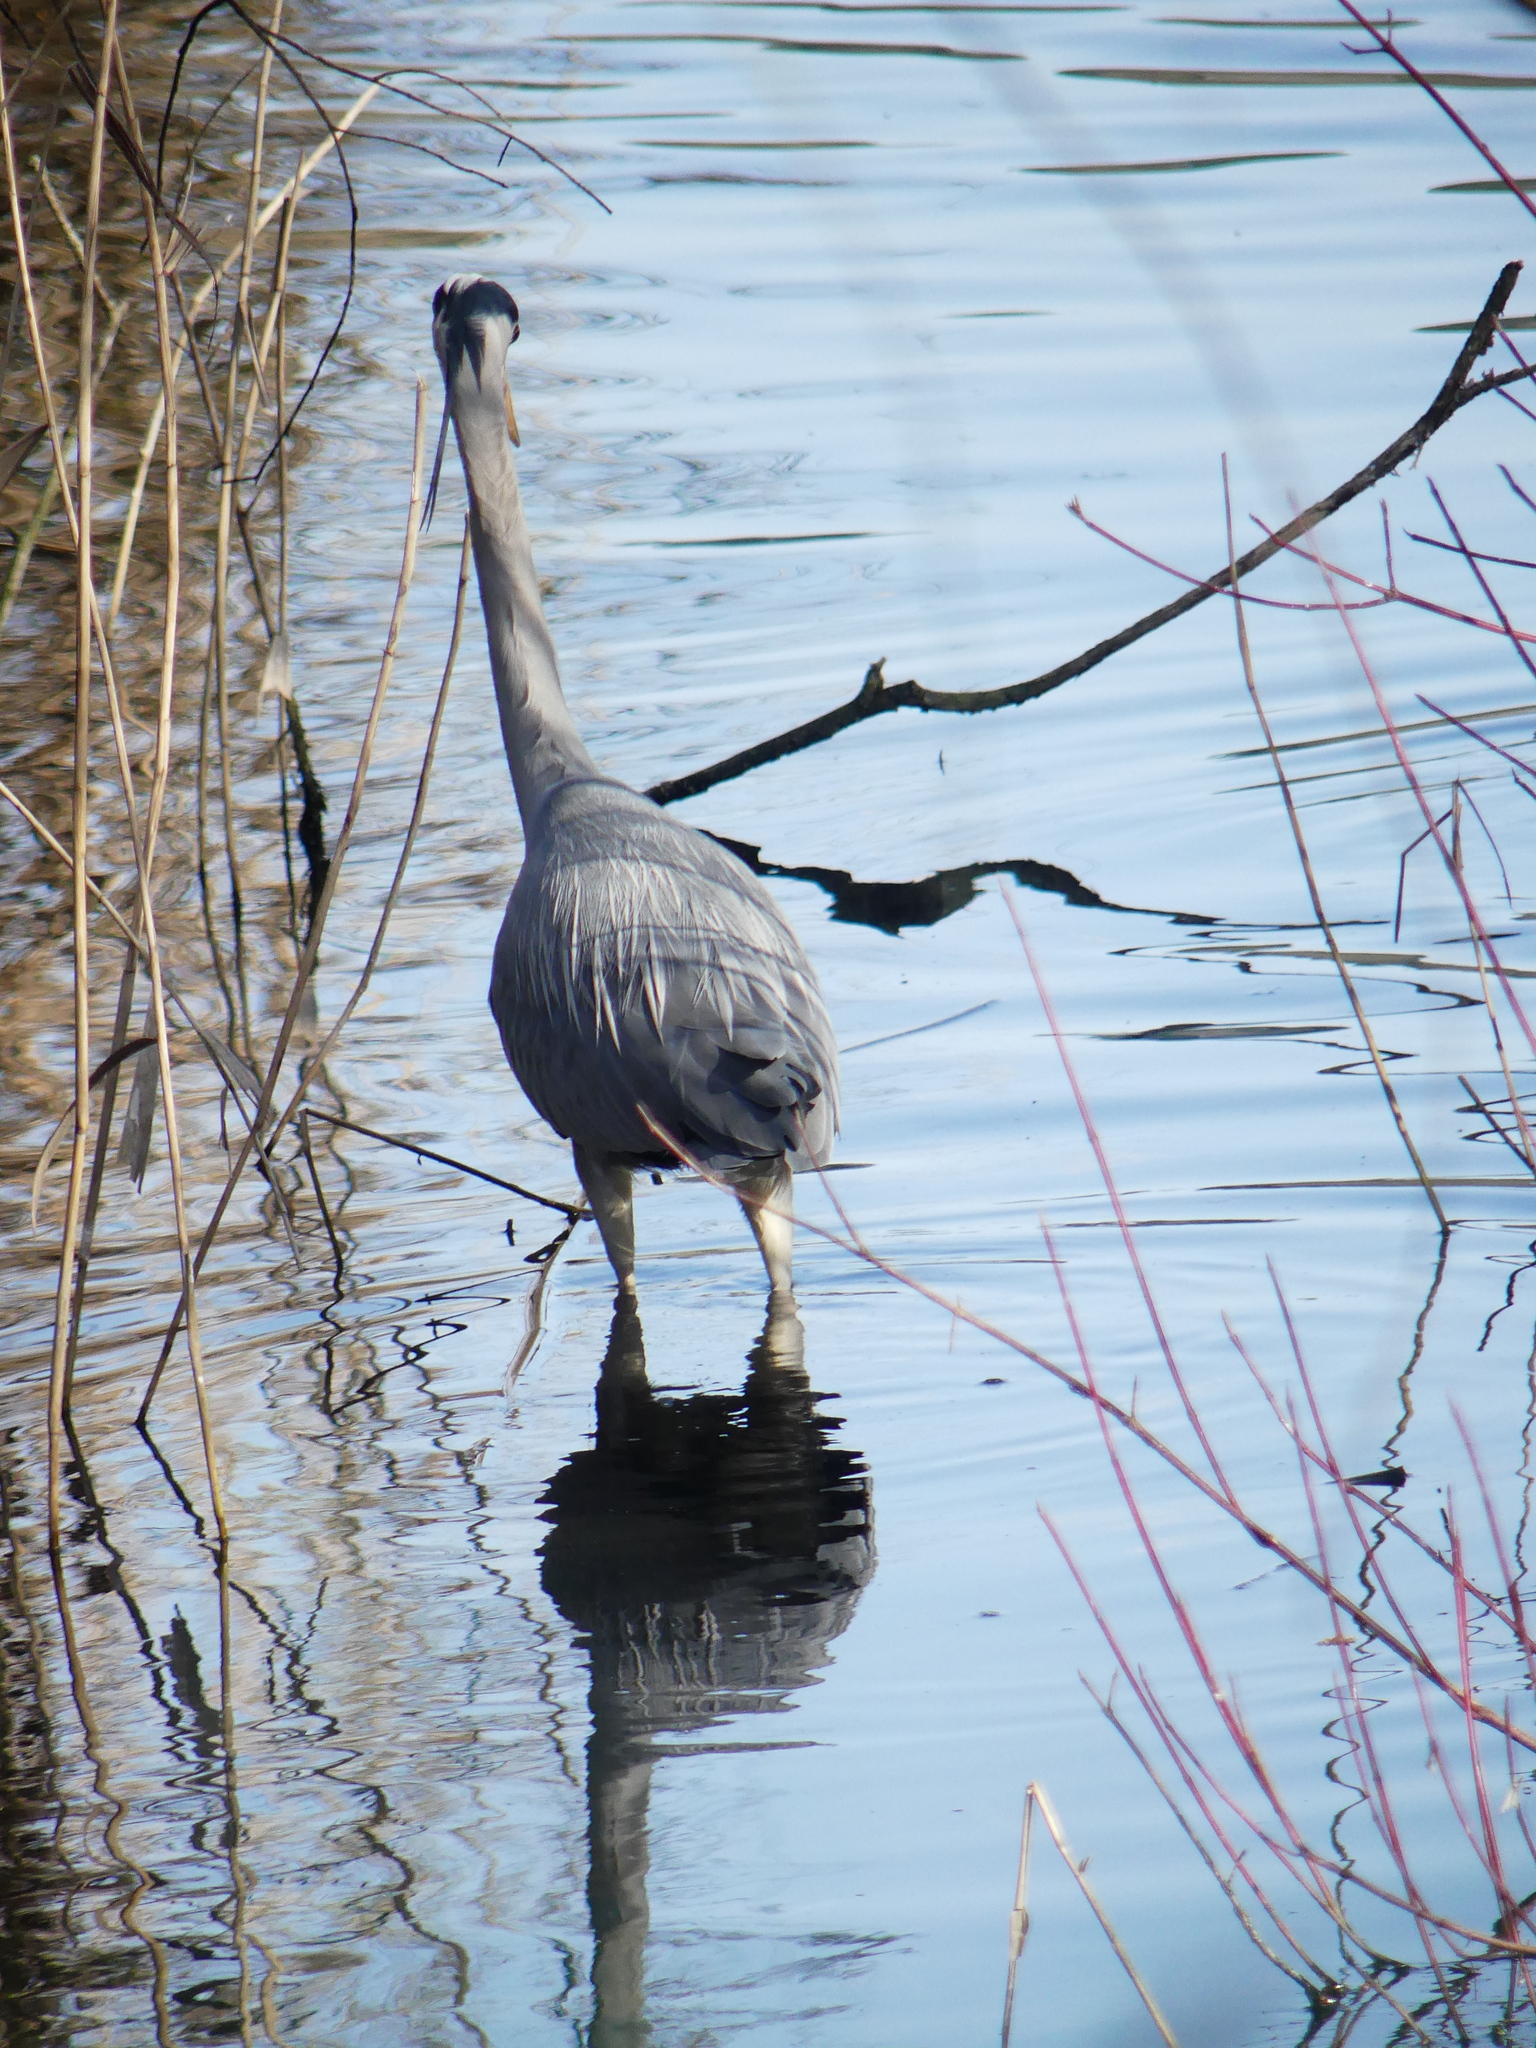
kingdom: Animalia
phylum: Chordata
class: Aves
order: Pelecaniformes
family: Ardeidae
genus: Ardea
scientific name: Ardea cinerea
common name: Grey heron
